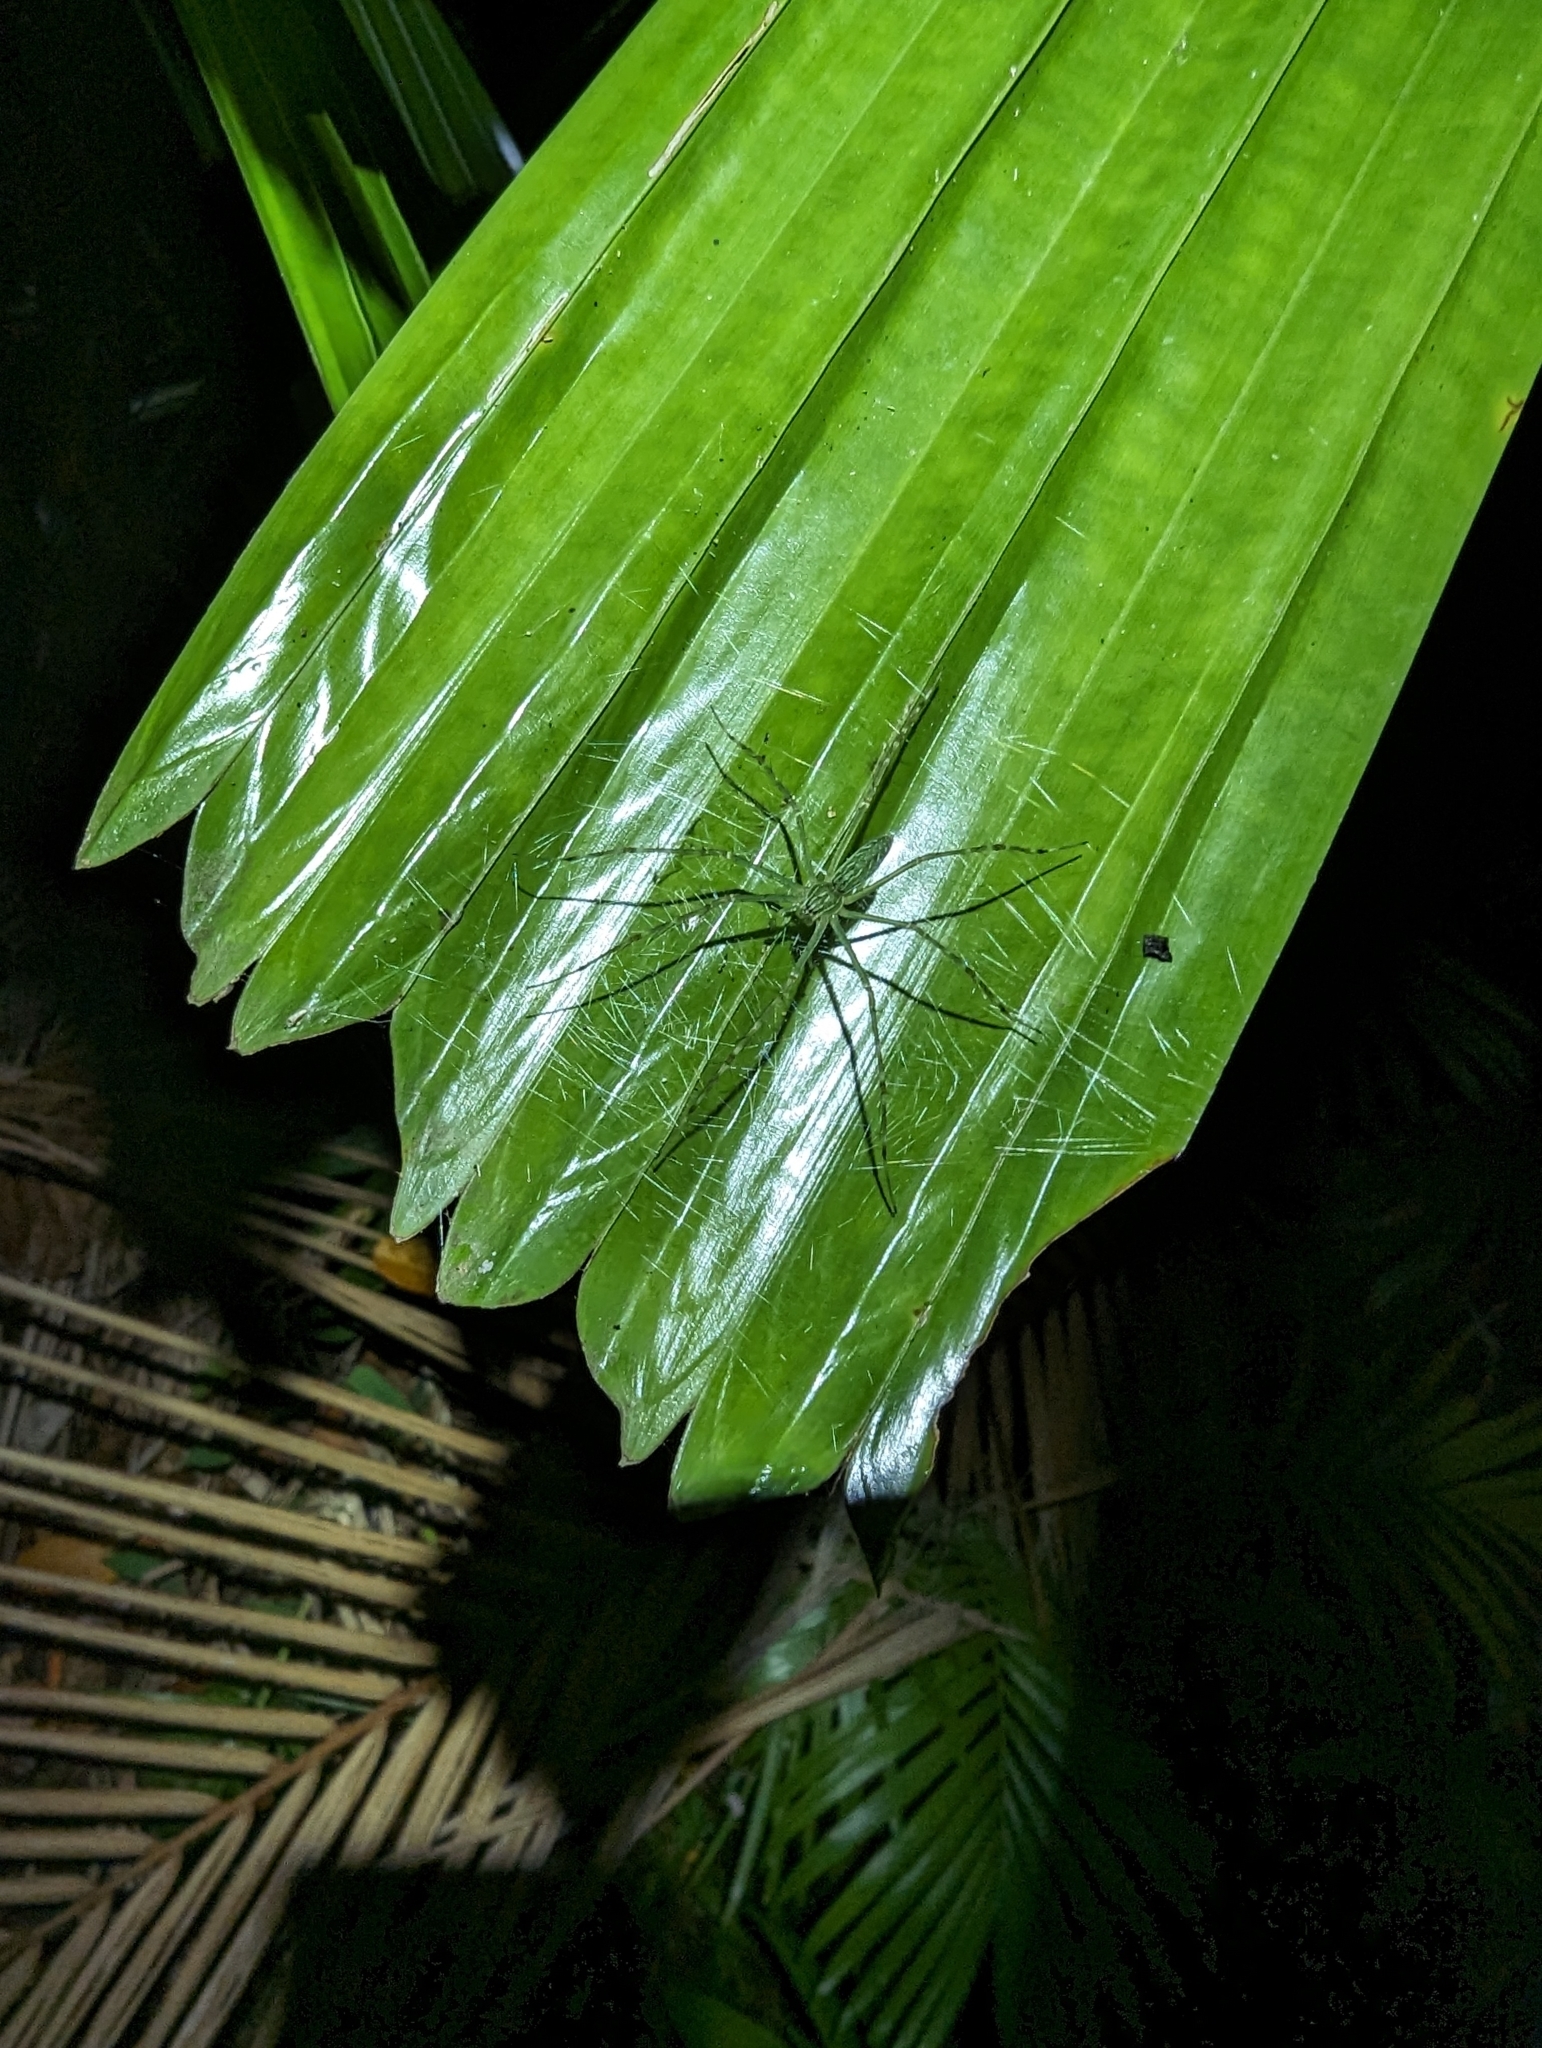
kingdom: Animalia
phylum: Arthropoda
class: Arachnida
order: Araneae
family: Pisauridae
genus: Hygropoda
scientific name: Hygropoda lineata
